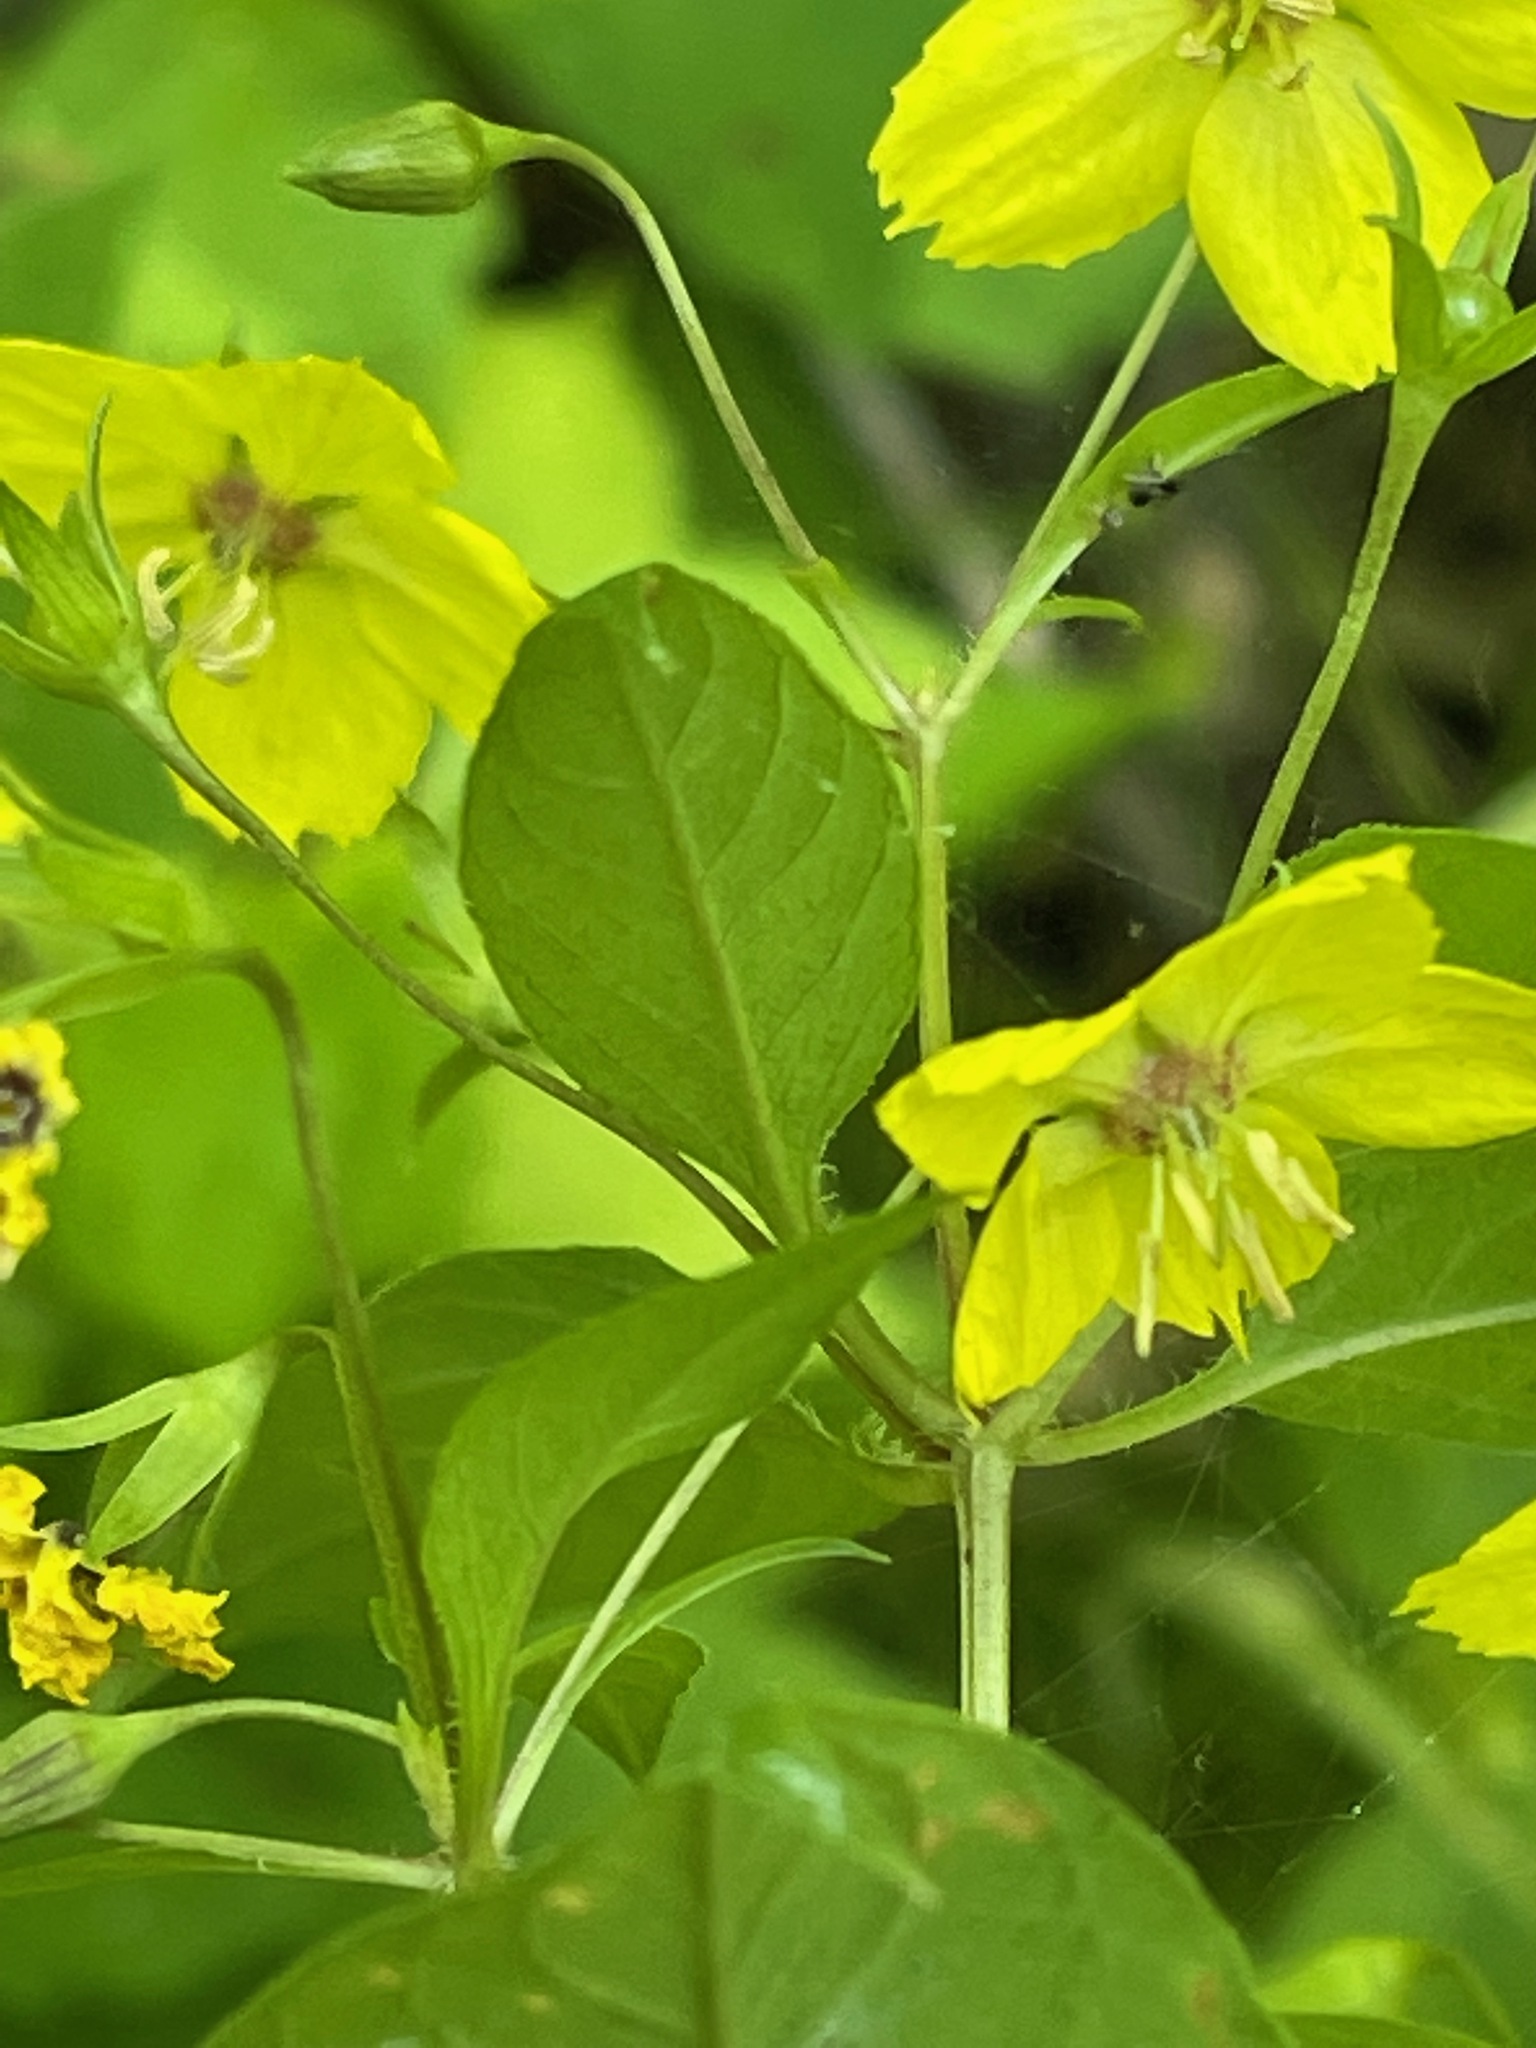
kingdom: Plantae
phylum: Tracheophyta
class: Magnoliopsida
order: Ericales
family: Primulaceae
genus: Lysimachia
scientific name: Lysimachia ciliata
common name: Fringed loosestrife
